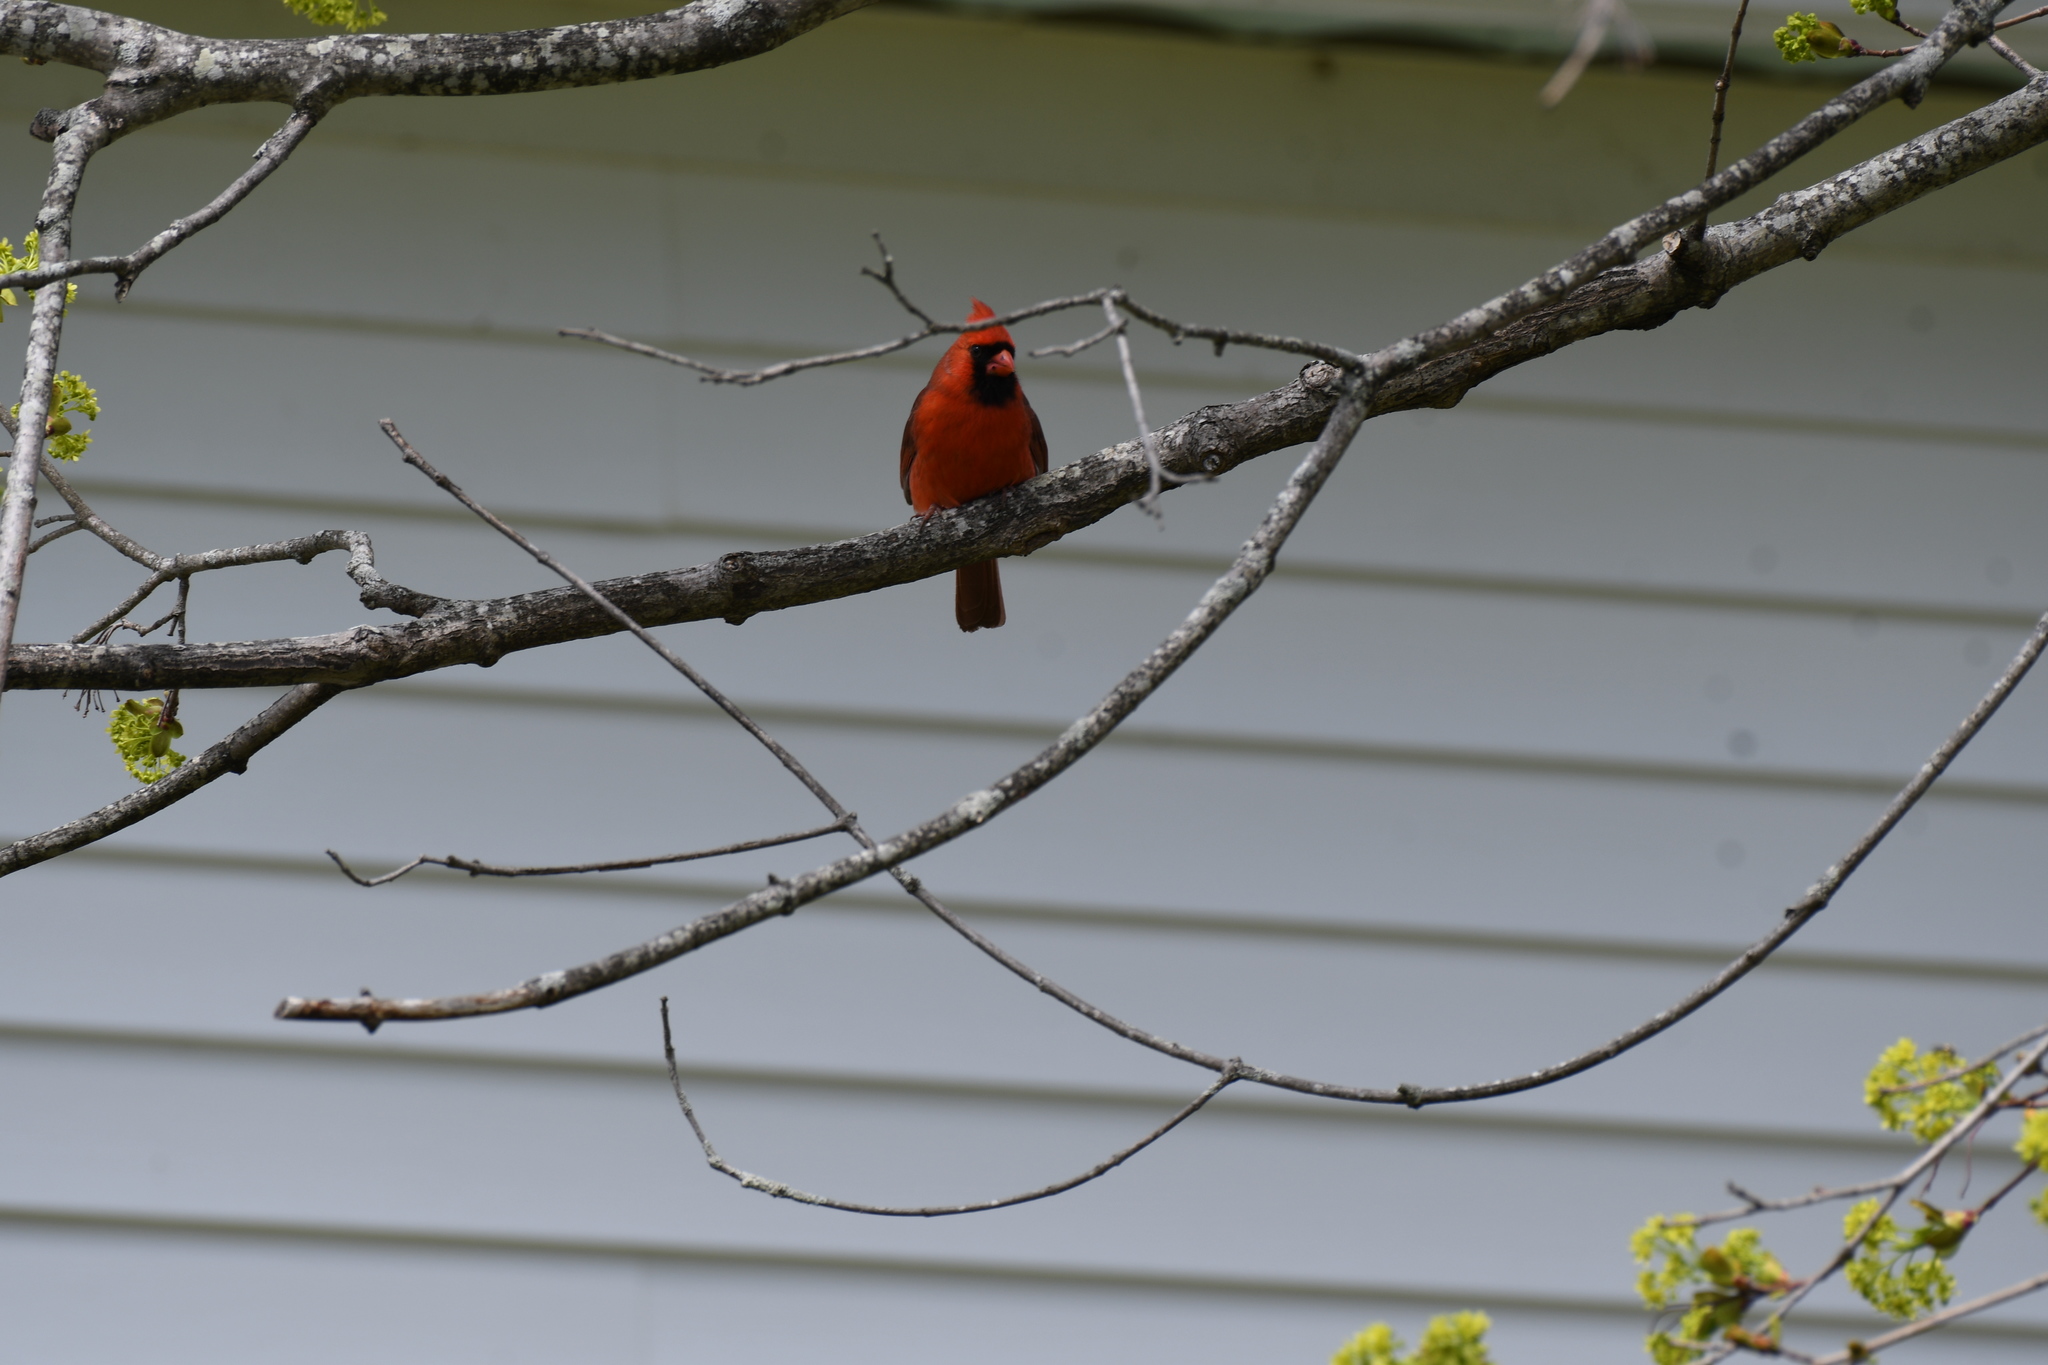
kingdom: Animalia
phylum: Chordata
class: Aves
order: Passeriformes
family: Cardinalidae
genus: Cardinalis
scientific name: Cardinalis cardinalis
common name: Northern cardinal
